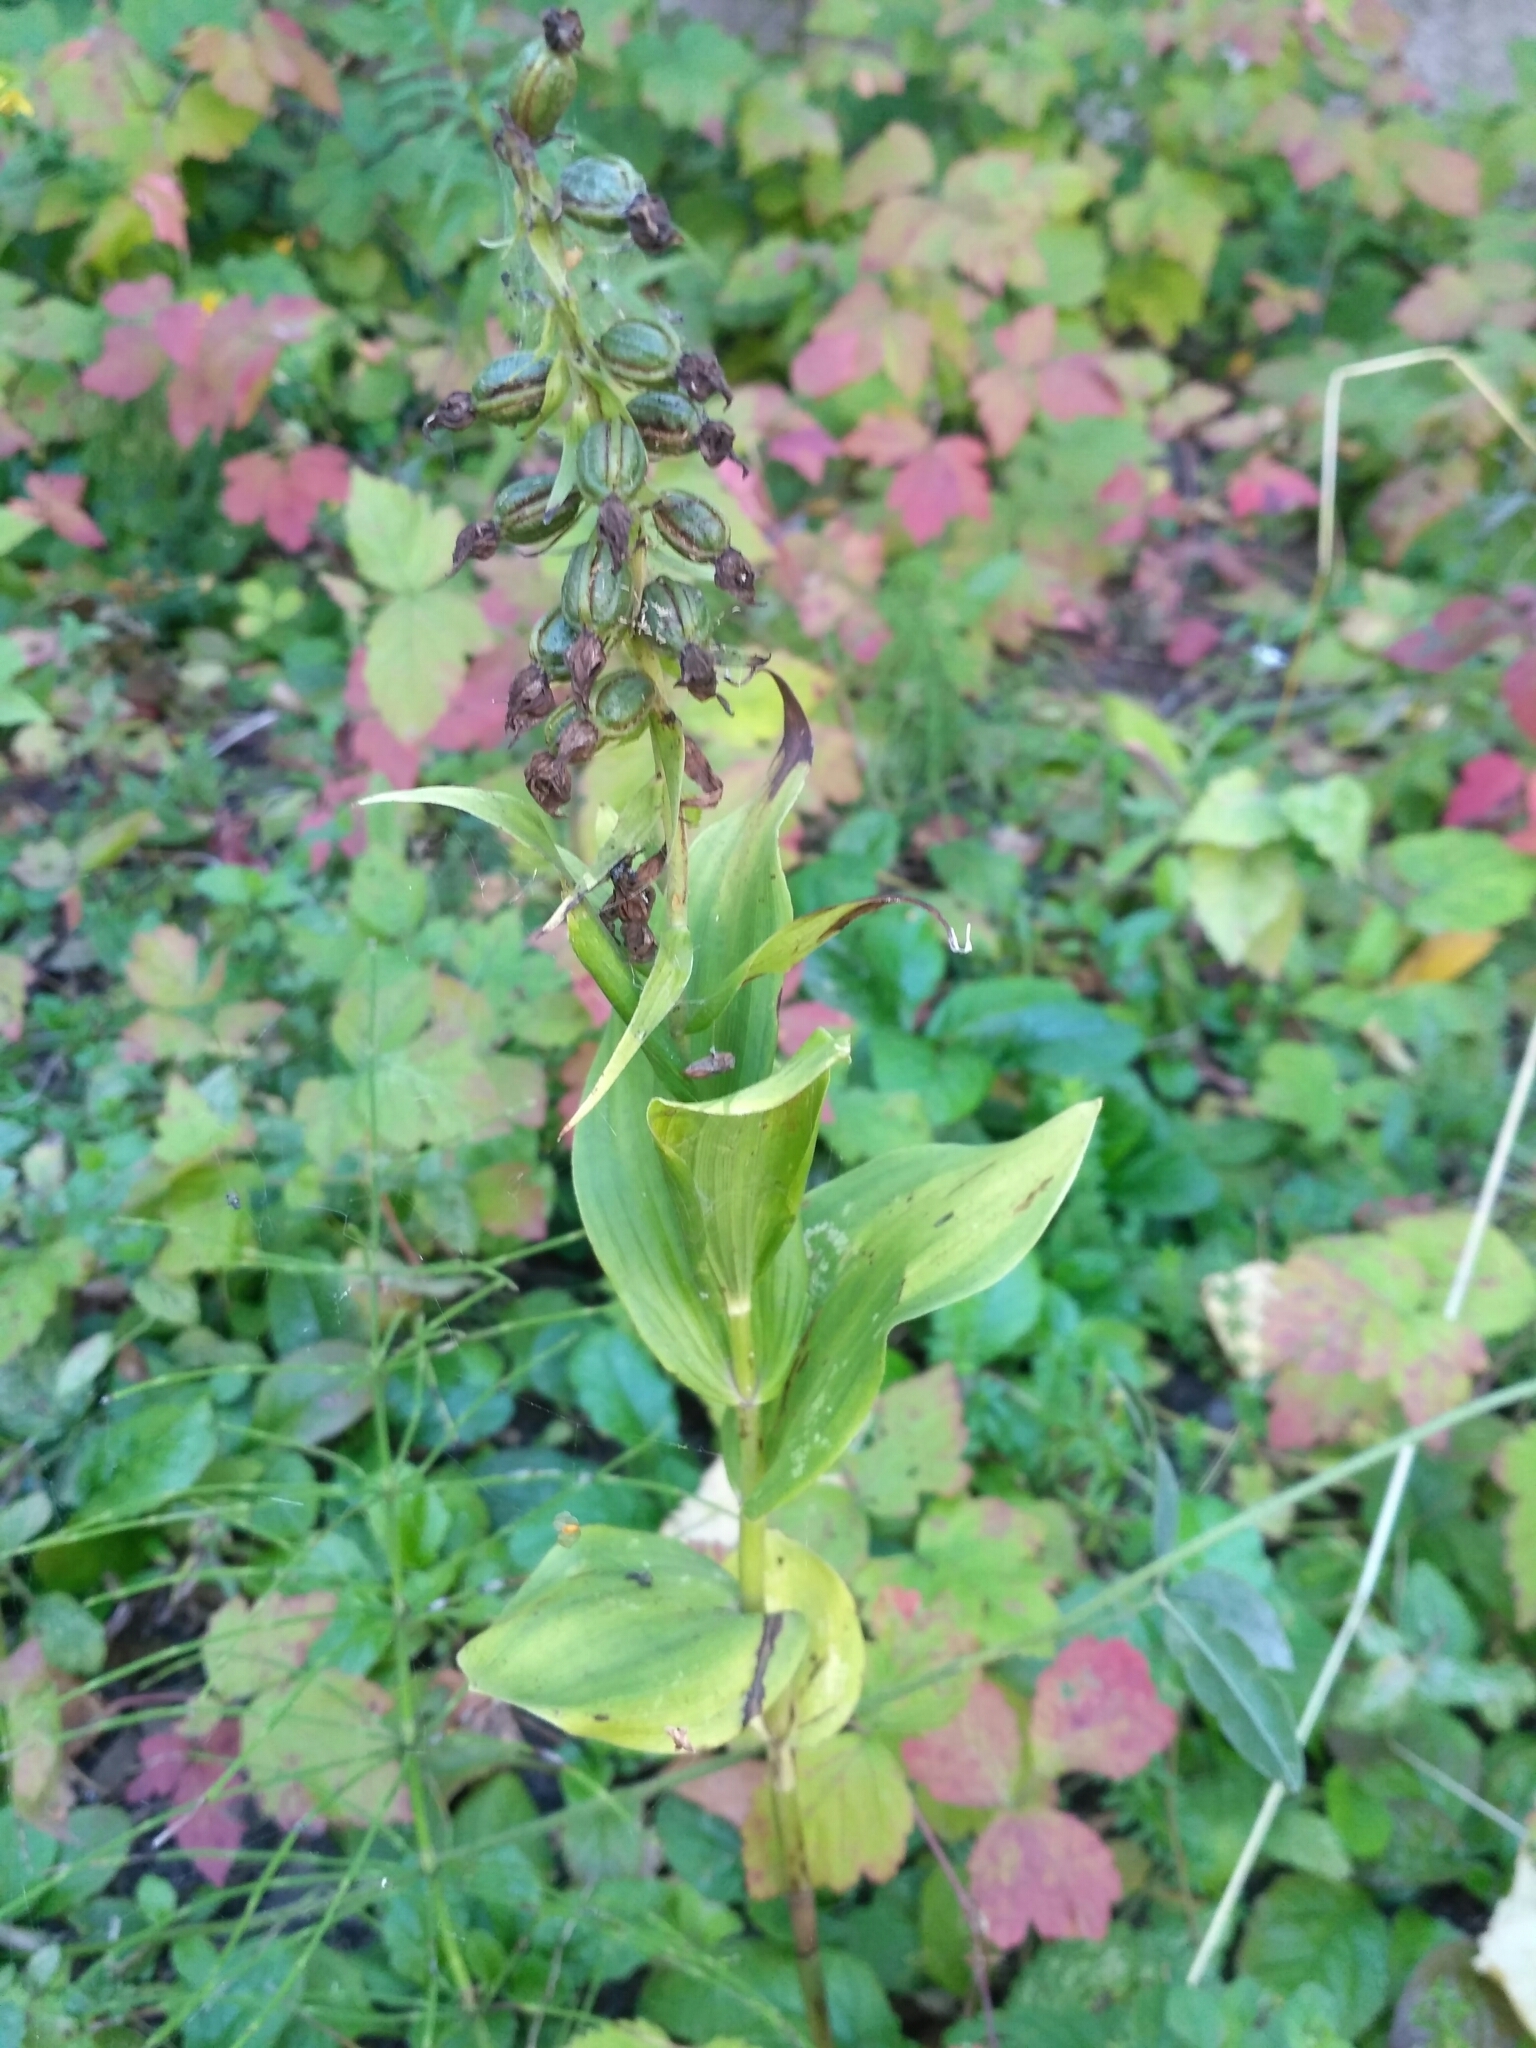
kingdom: Plantae
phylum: Tracheophyta
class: Liliopsida
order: Asparagales
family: Orchidaceae
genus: Epipactis
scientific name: Epipactis helleborine
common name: Broad-leaved helleborine
